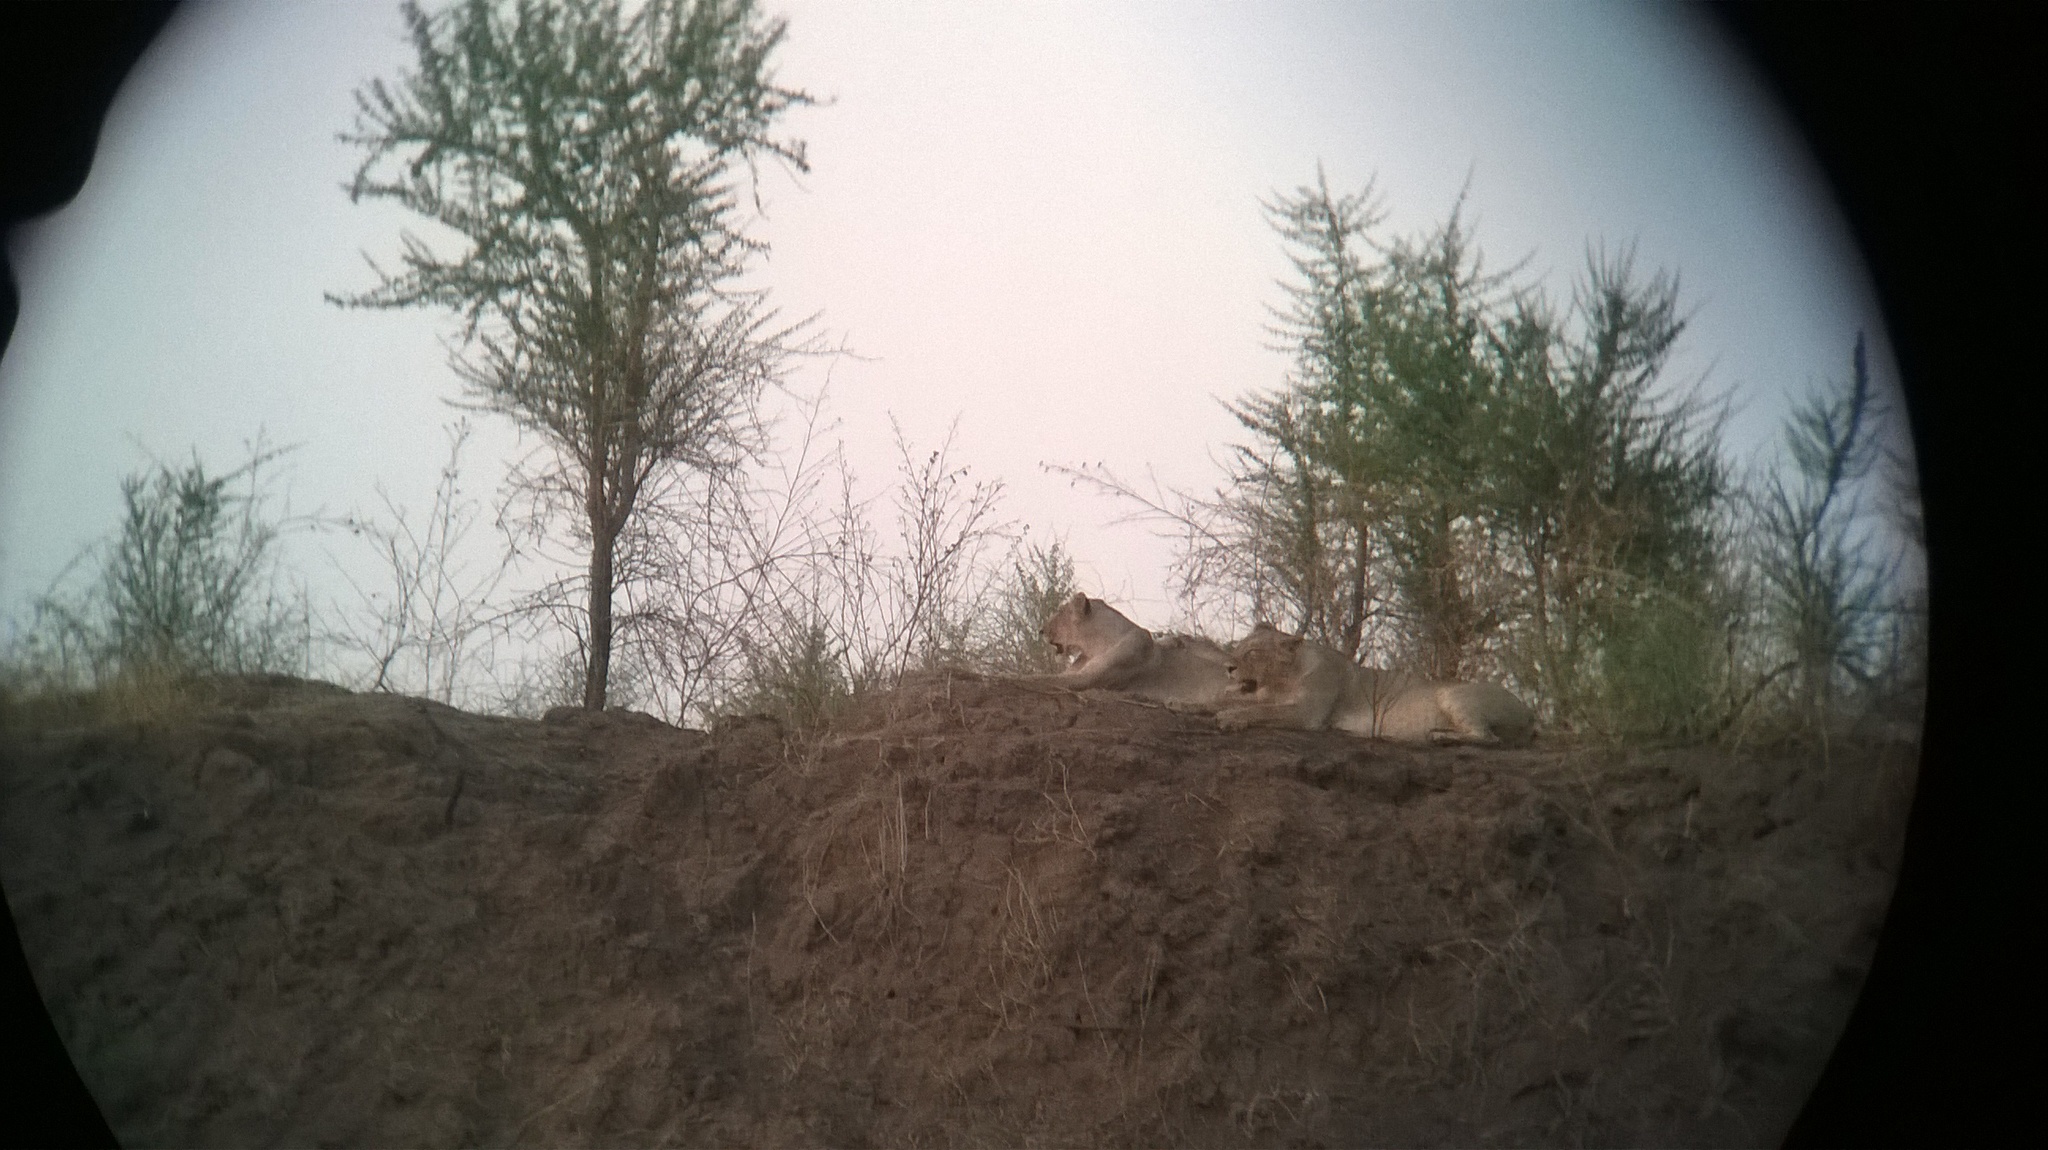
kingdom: Animalia
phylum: Chordata
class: Mammalia
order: Carnivora
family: Felidae
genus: Panthera
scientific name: Panthera leo
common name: Lion
